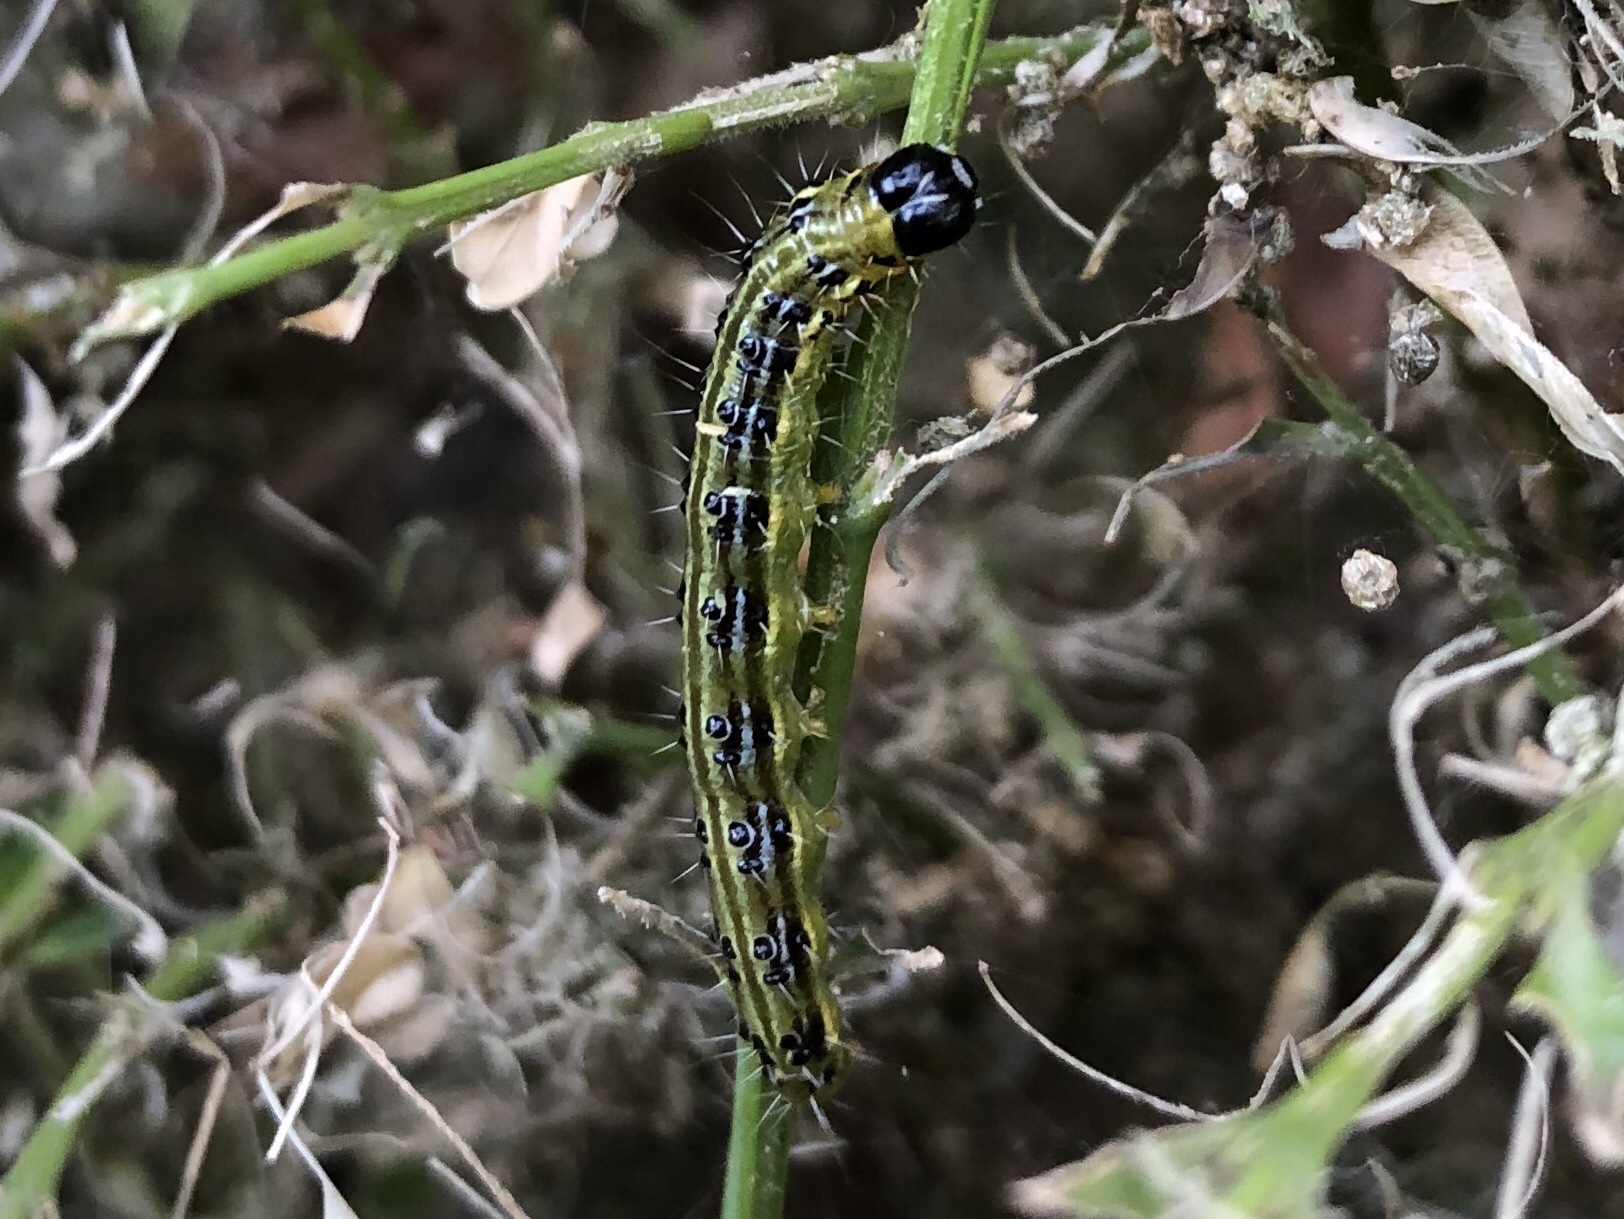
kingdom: Animalia
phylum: Arthropoda
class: Insecta
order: Lepidoptera
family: Crambidae
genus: Cydalima
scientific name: Cydalima perspectalis
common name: Box tree moth
